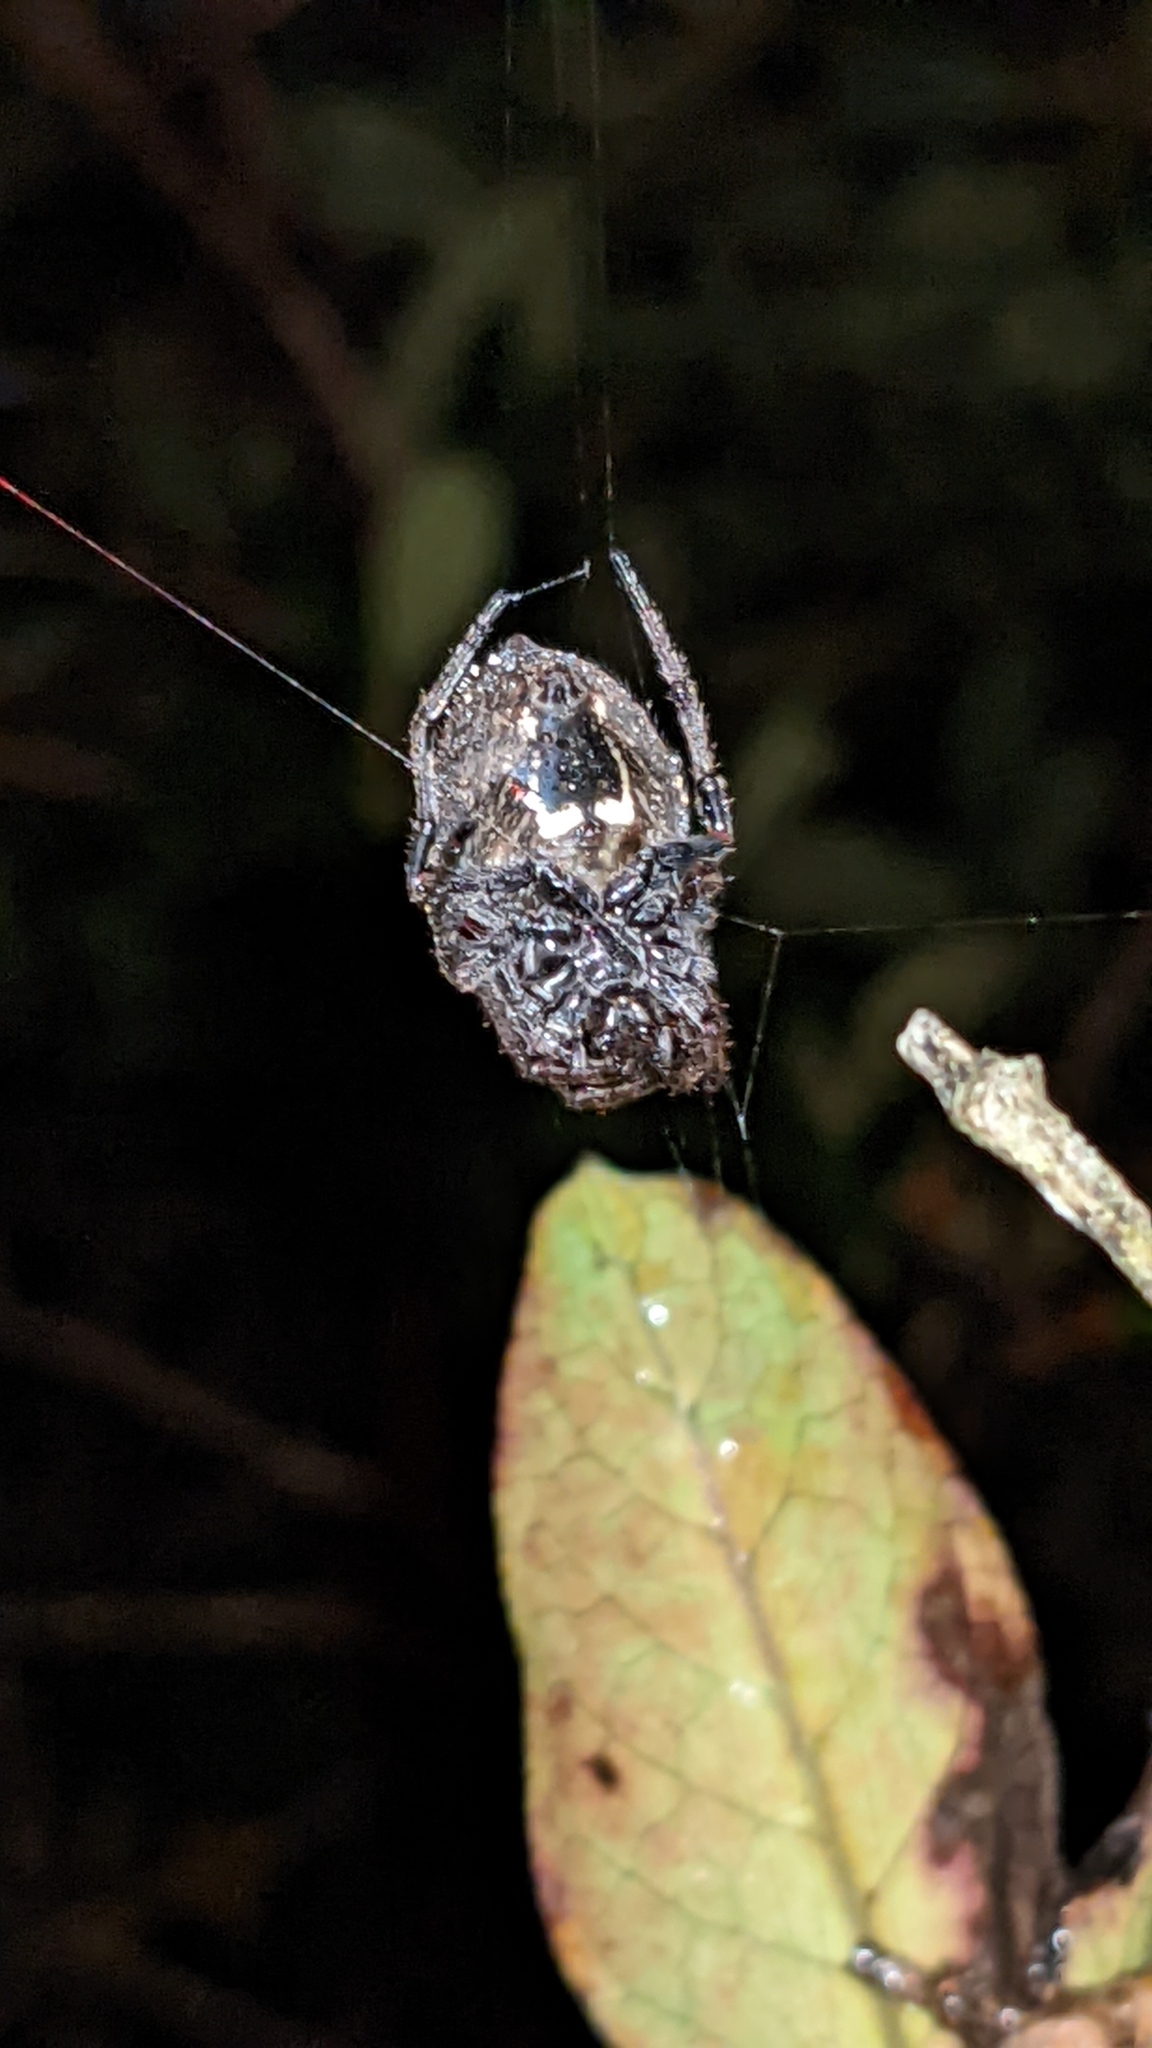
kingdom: Animalia
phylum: Arthropoda
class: Arachnida
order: Araneae
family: Araneidae
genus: Eriophora
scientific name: Eriophora pustulosa
